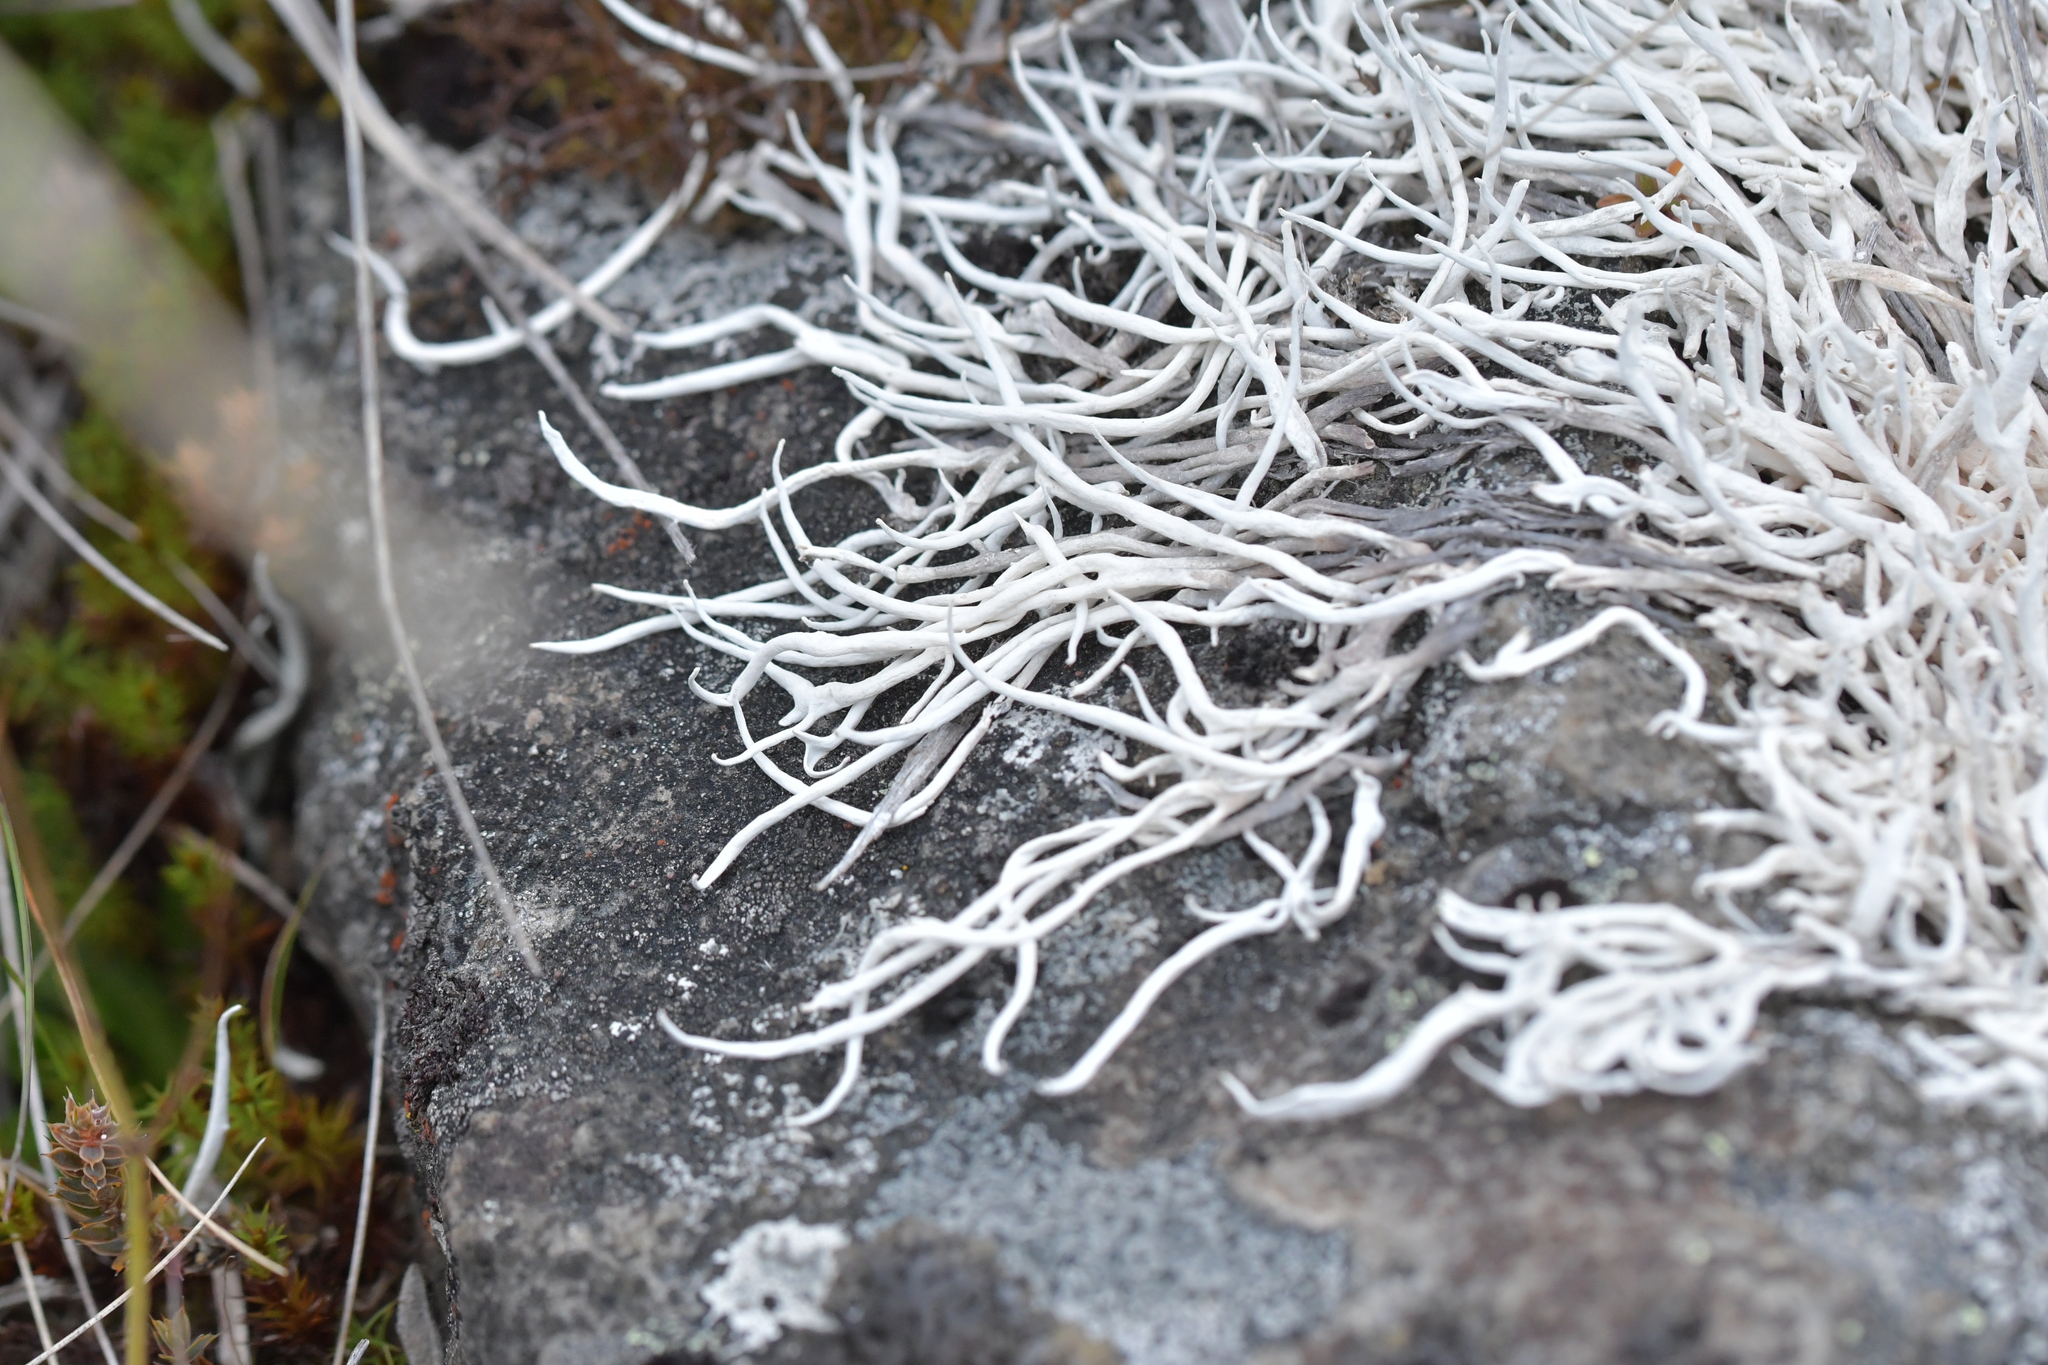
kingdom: Fungi
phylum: Ascomycota
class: Lecanoromycetes
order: Pertusariales
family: Icmadophilaceae
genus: Thamnolia
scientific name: Thamnolia vermicularis
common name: Whiteworm lichen
